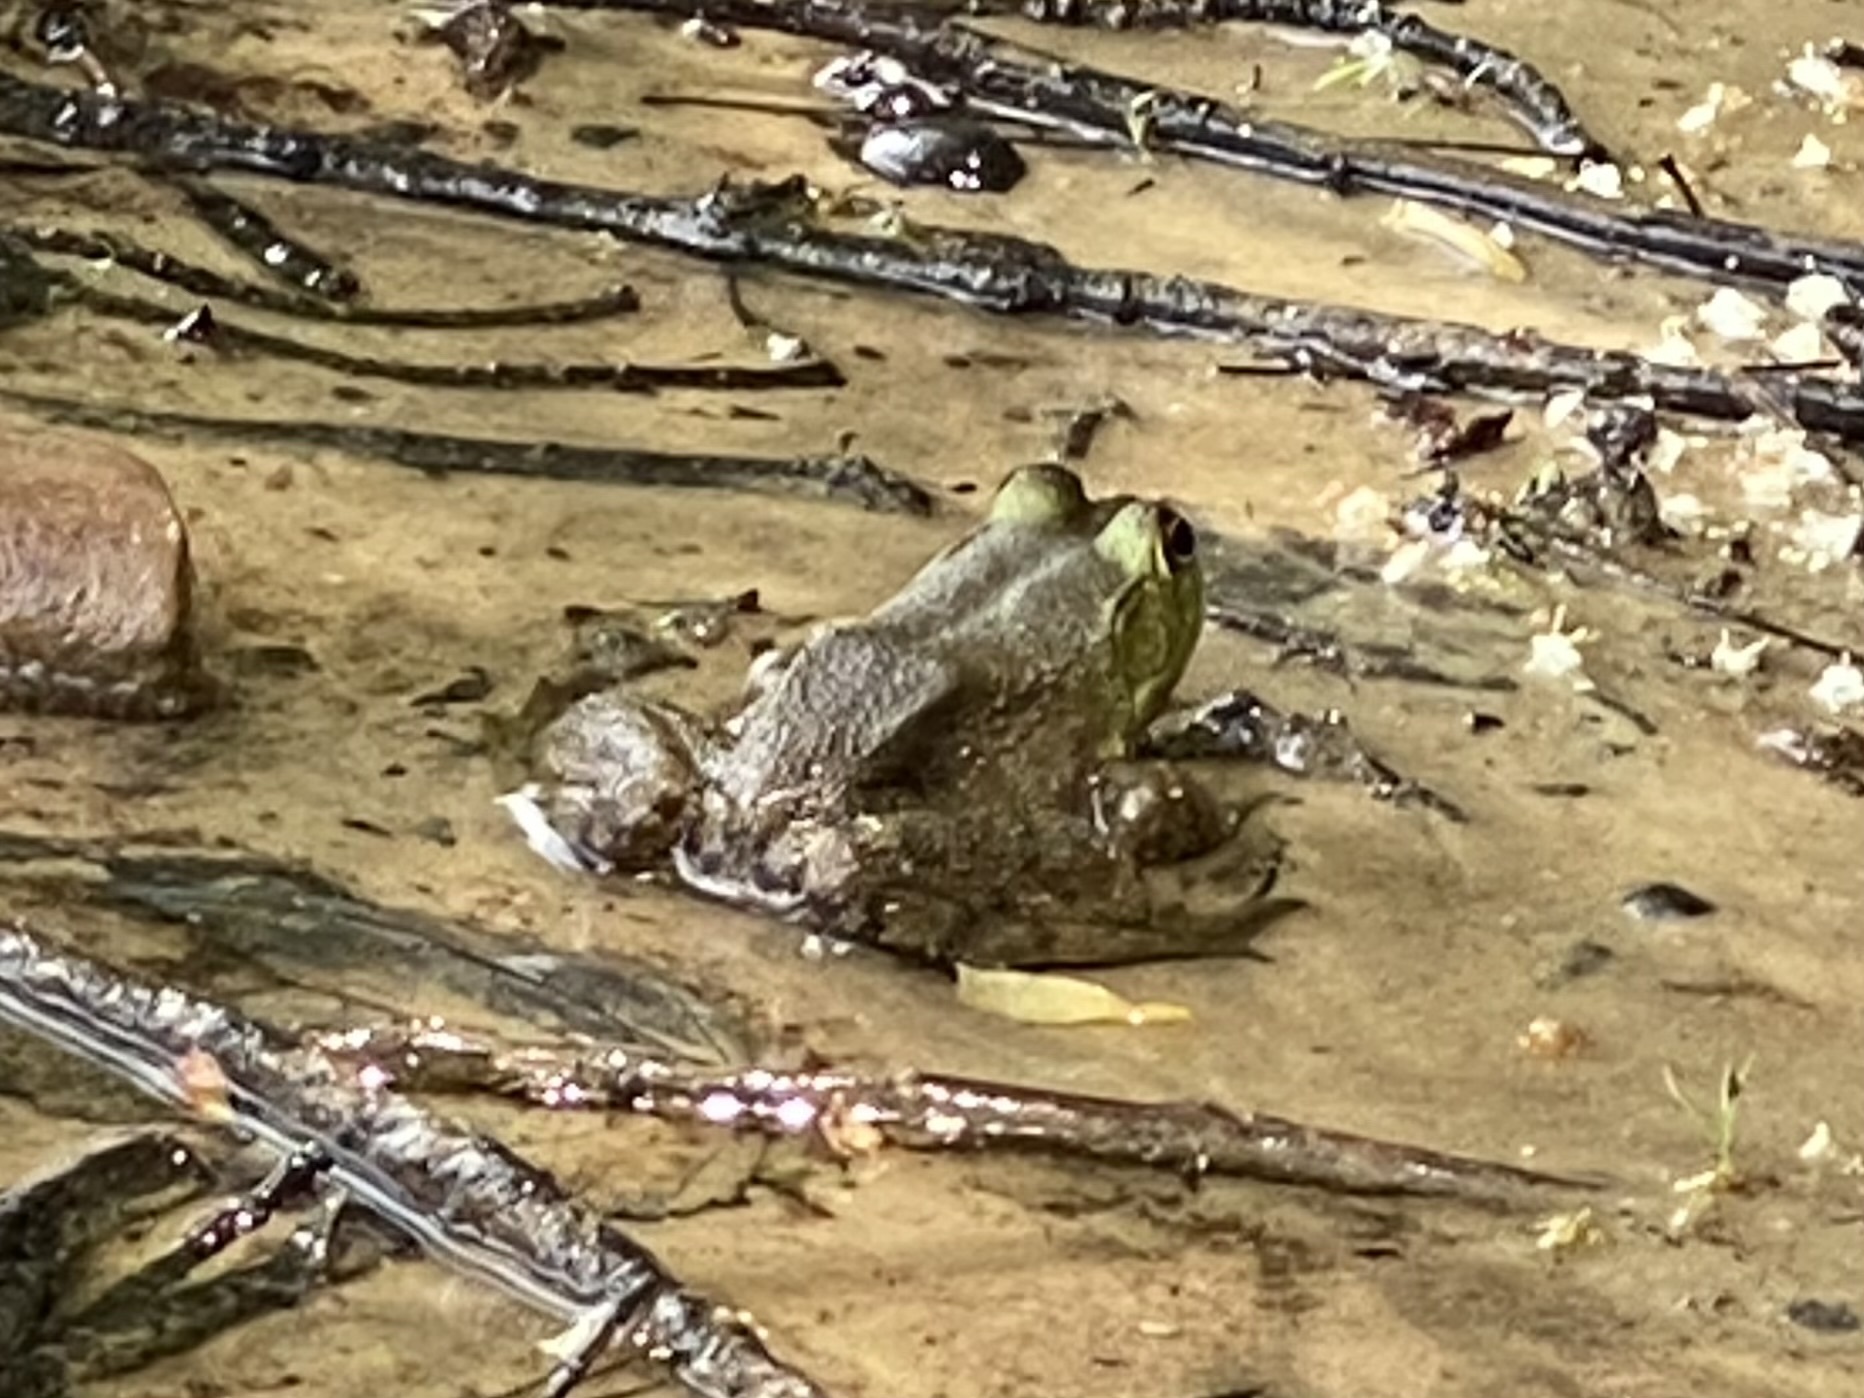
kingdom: Animalia
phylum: Chordata
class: Amphibia
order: Anura
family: Ranidae
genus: Lithobates
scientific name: Lithobates catesbeianus
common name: American bullfrog
